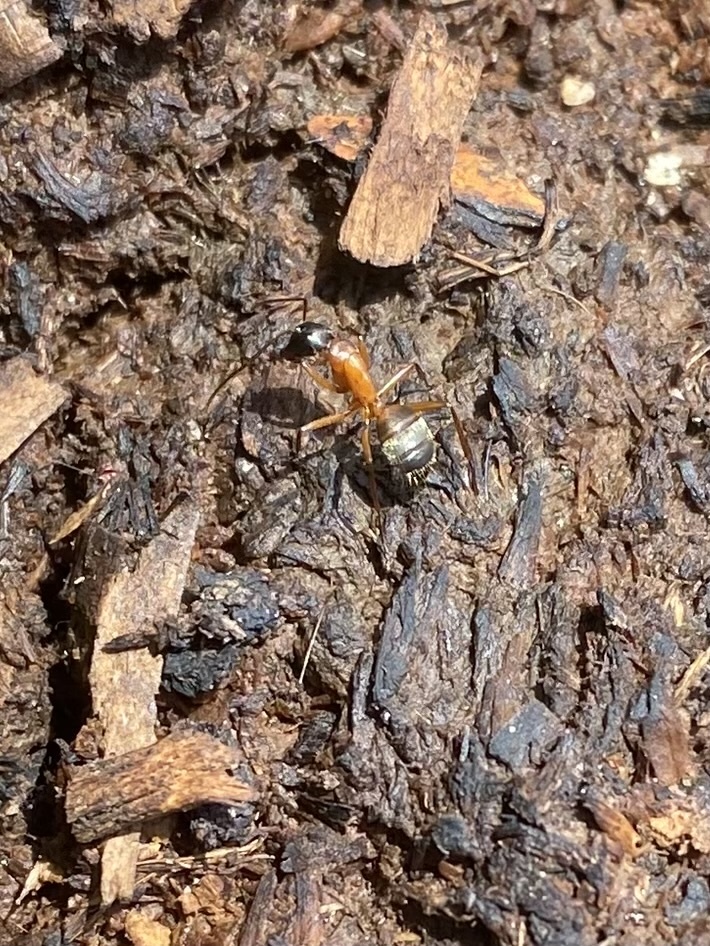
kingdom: Animalia
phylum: Arthropoda
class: Insecta
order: Hymenoptera
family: Formicidae
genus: Camponotus
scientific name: Camponotus chromaiodes
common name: Red carpenter ant
